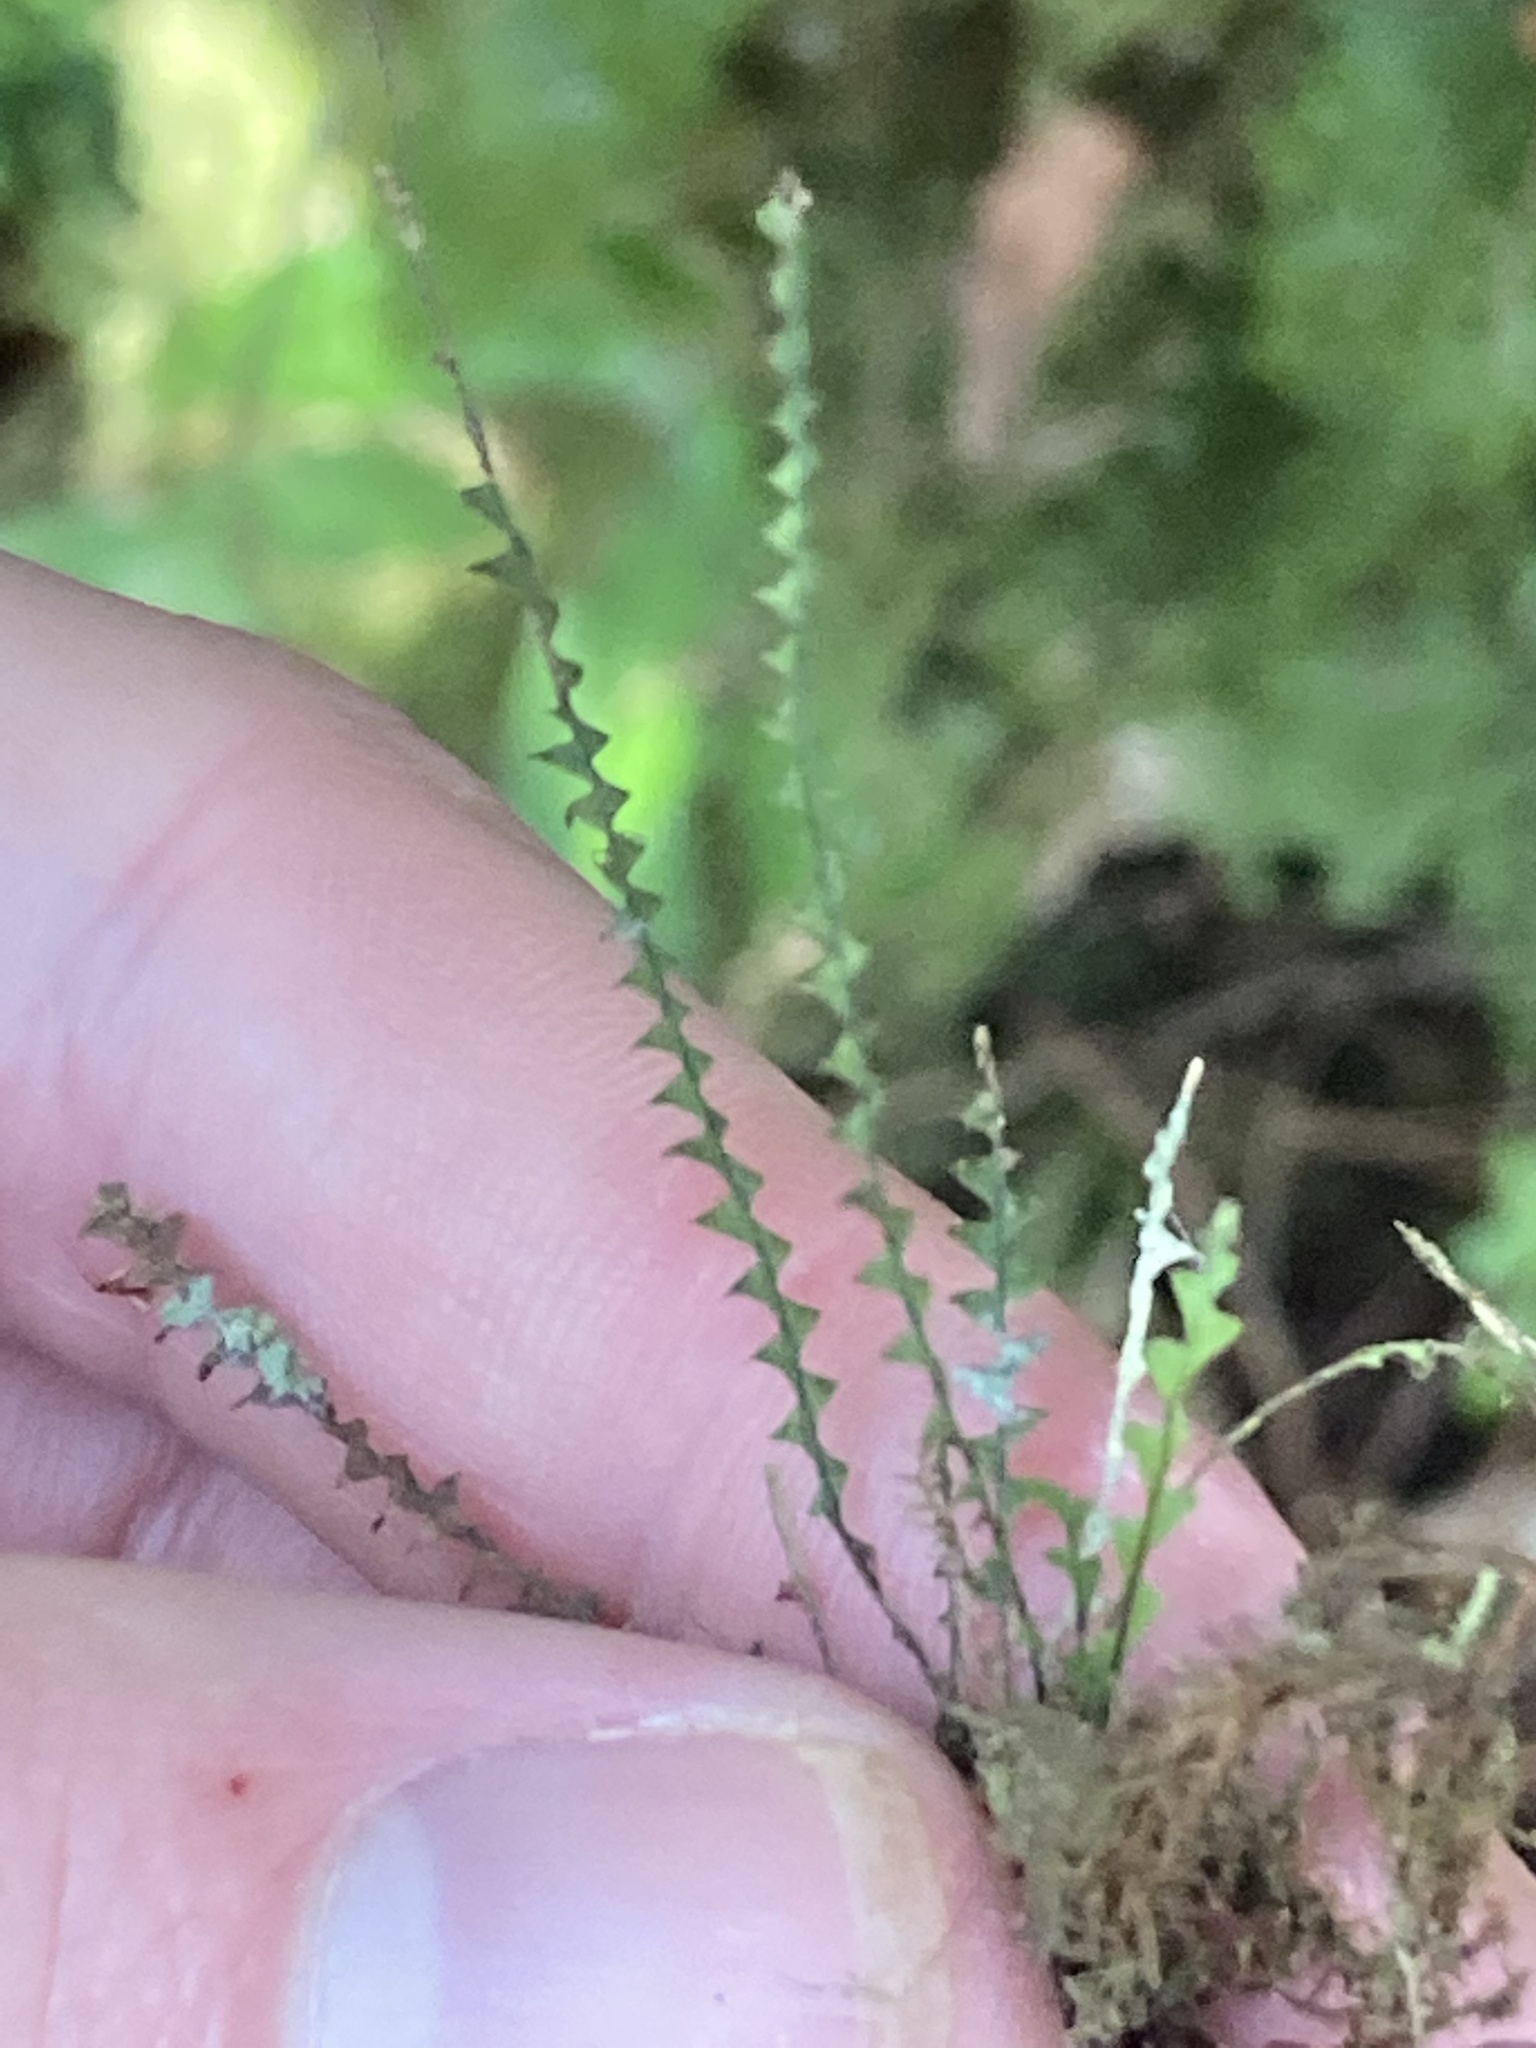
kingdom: Plantae
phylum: Tracheophyta
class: Polypodiopsida
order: Polypodiales
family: Polypodiaceae
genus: Cochlidium
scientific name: Cochlidium serrulatum
